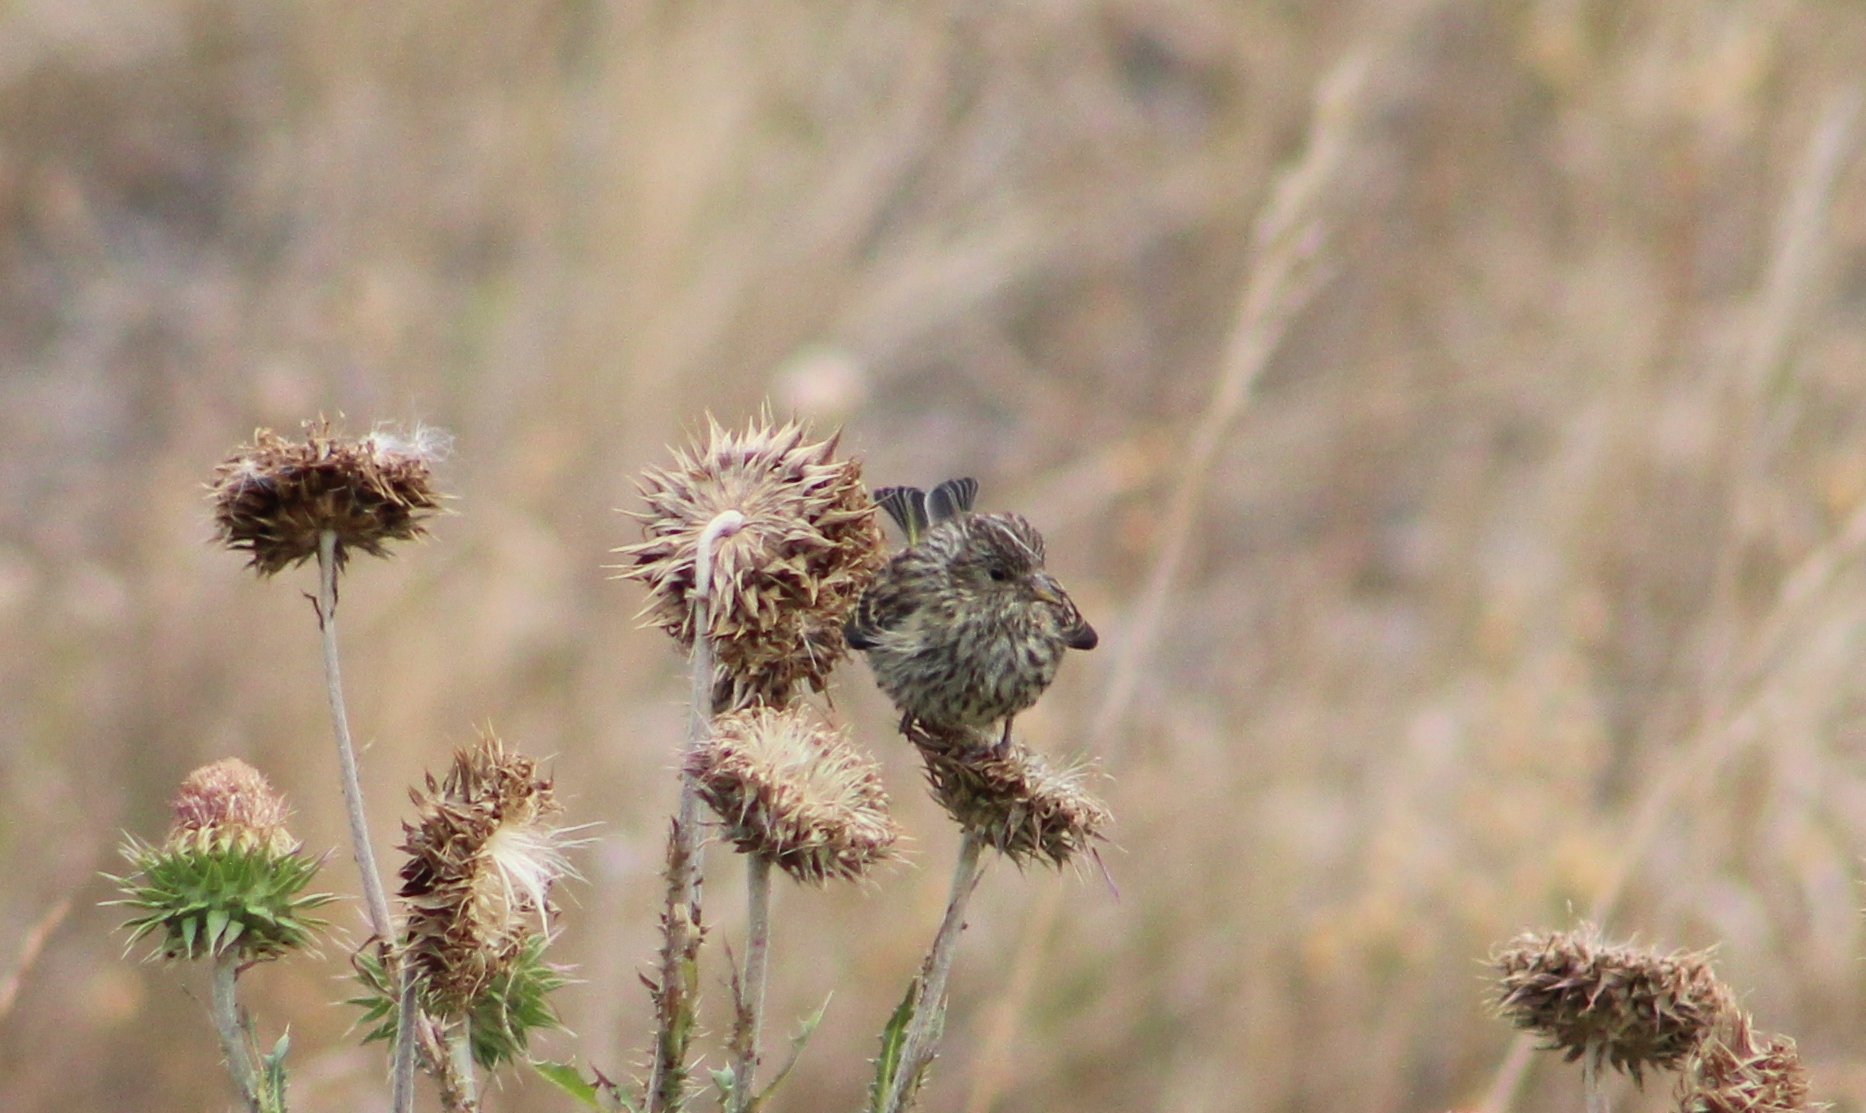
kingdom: Animalia
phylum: Chordata
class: Aves
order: Passeriformes
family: Fringillidae
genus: Spinus
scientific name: Spinus pinus
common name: Pine siskin
